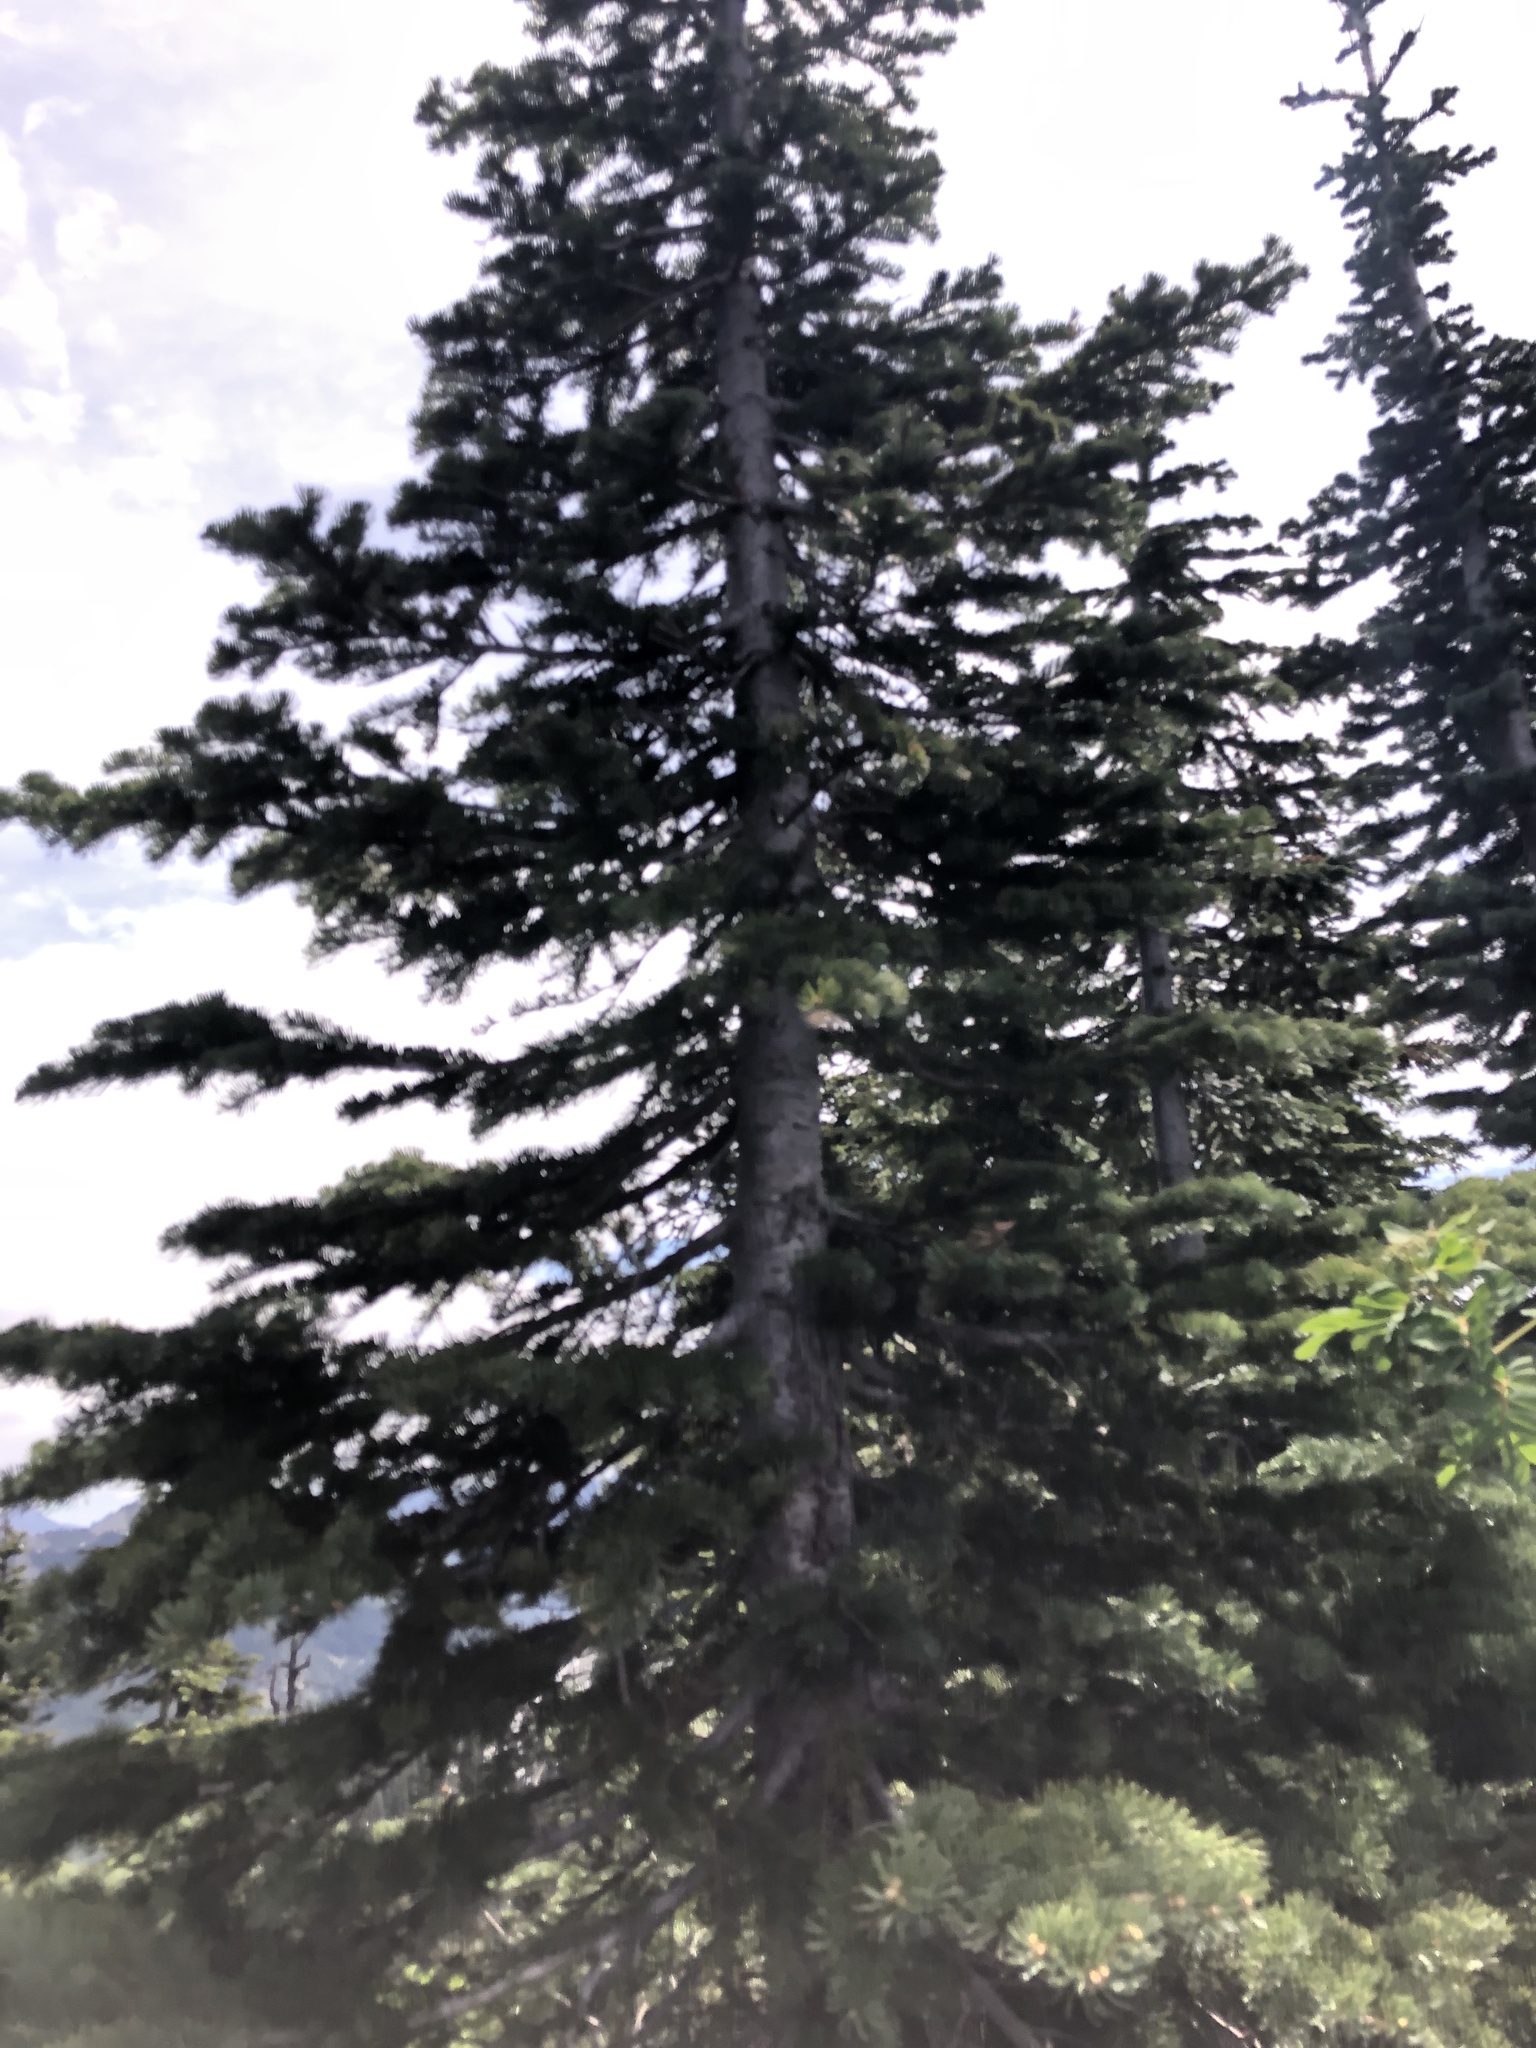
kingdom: Plantae
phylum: Tracheophyta
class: Pinopsida
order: Pinales
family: Pinaceae
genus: Abies
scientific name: Abies lasiocarpa
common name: Subalpine fir
